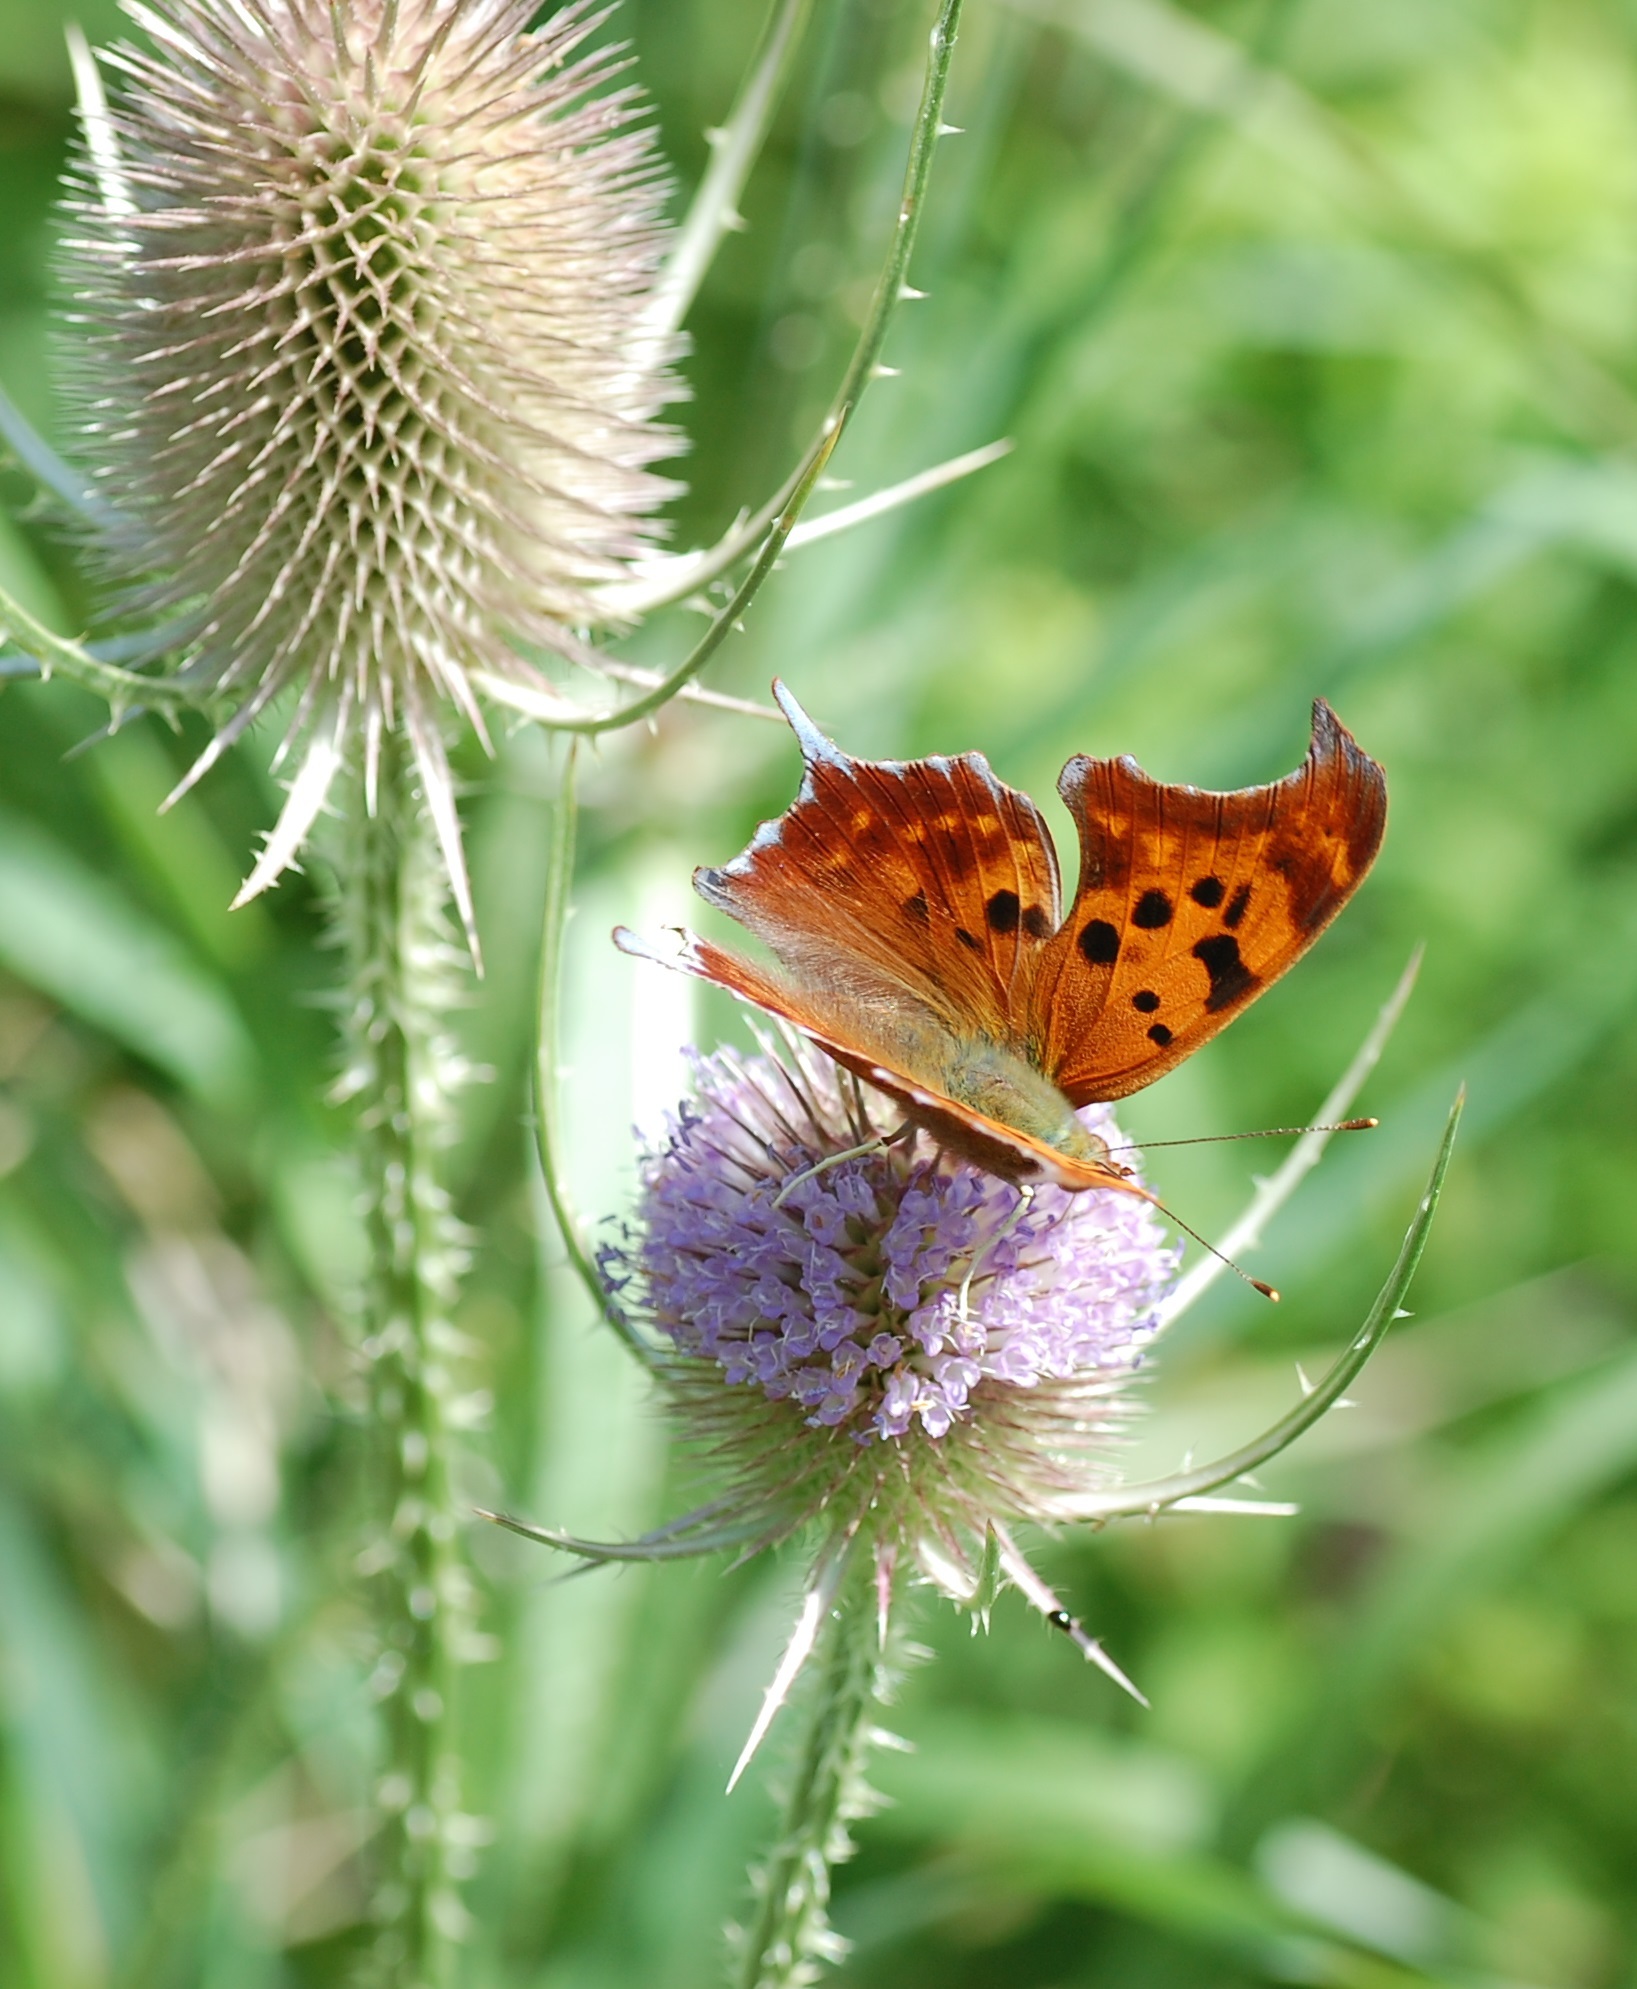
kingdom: Animalia
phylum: Arthropoda
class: Insecta
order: Lepidoptera
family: Nymphalidae
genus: Polygonia
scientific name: Polygonia interrogationis
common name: Question mark
